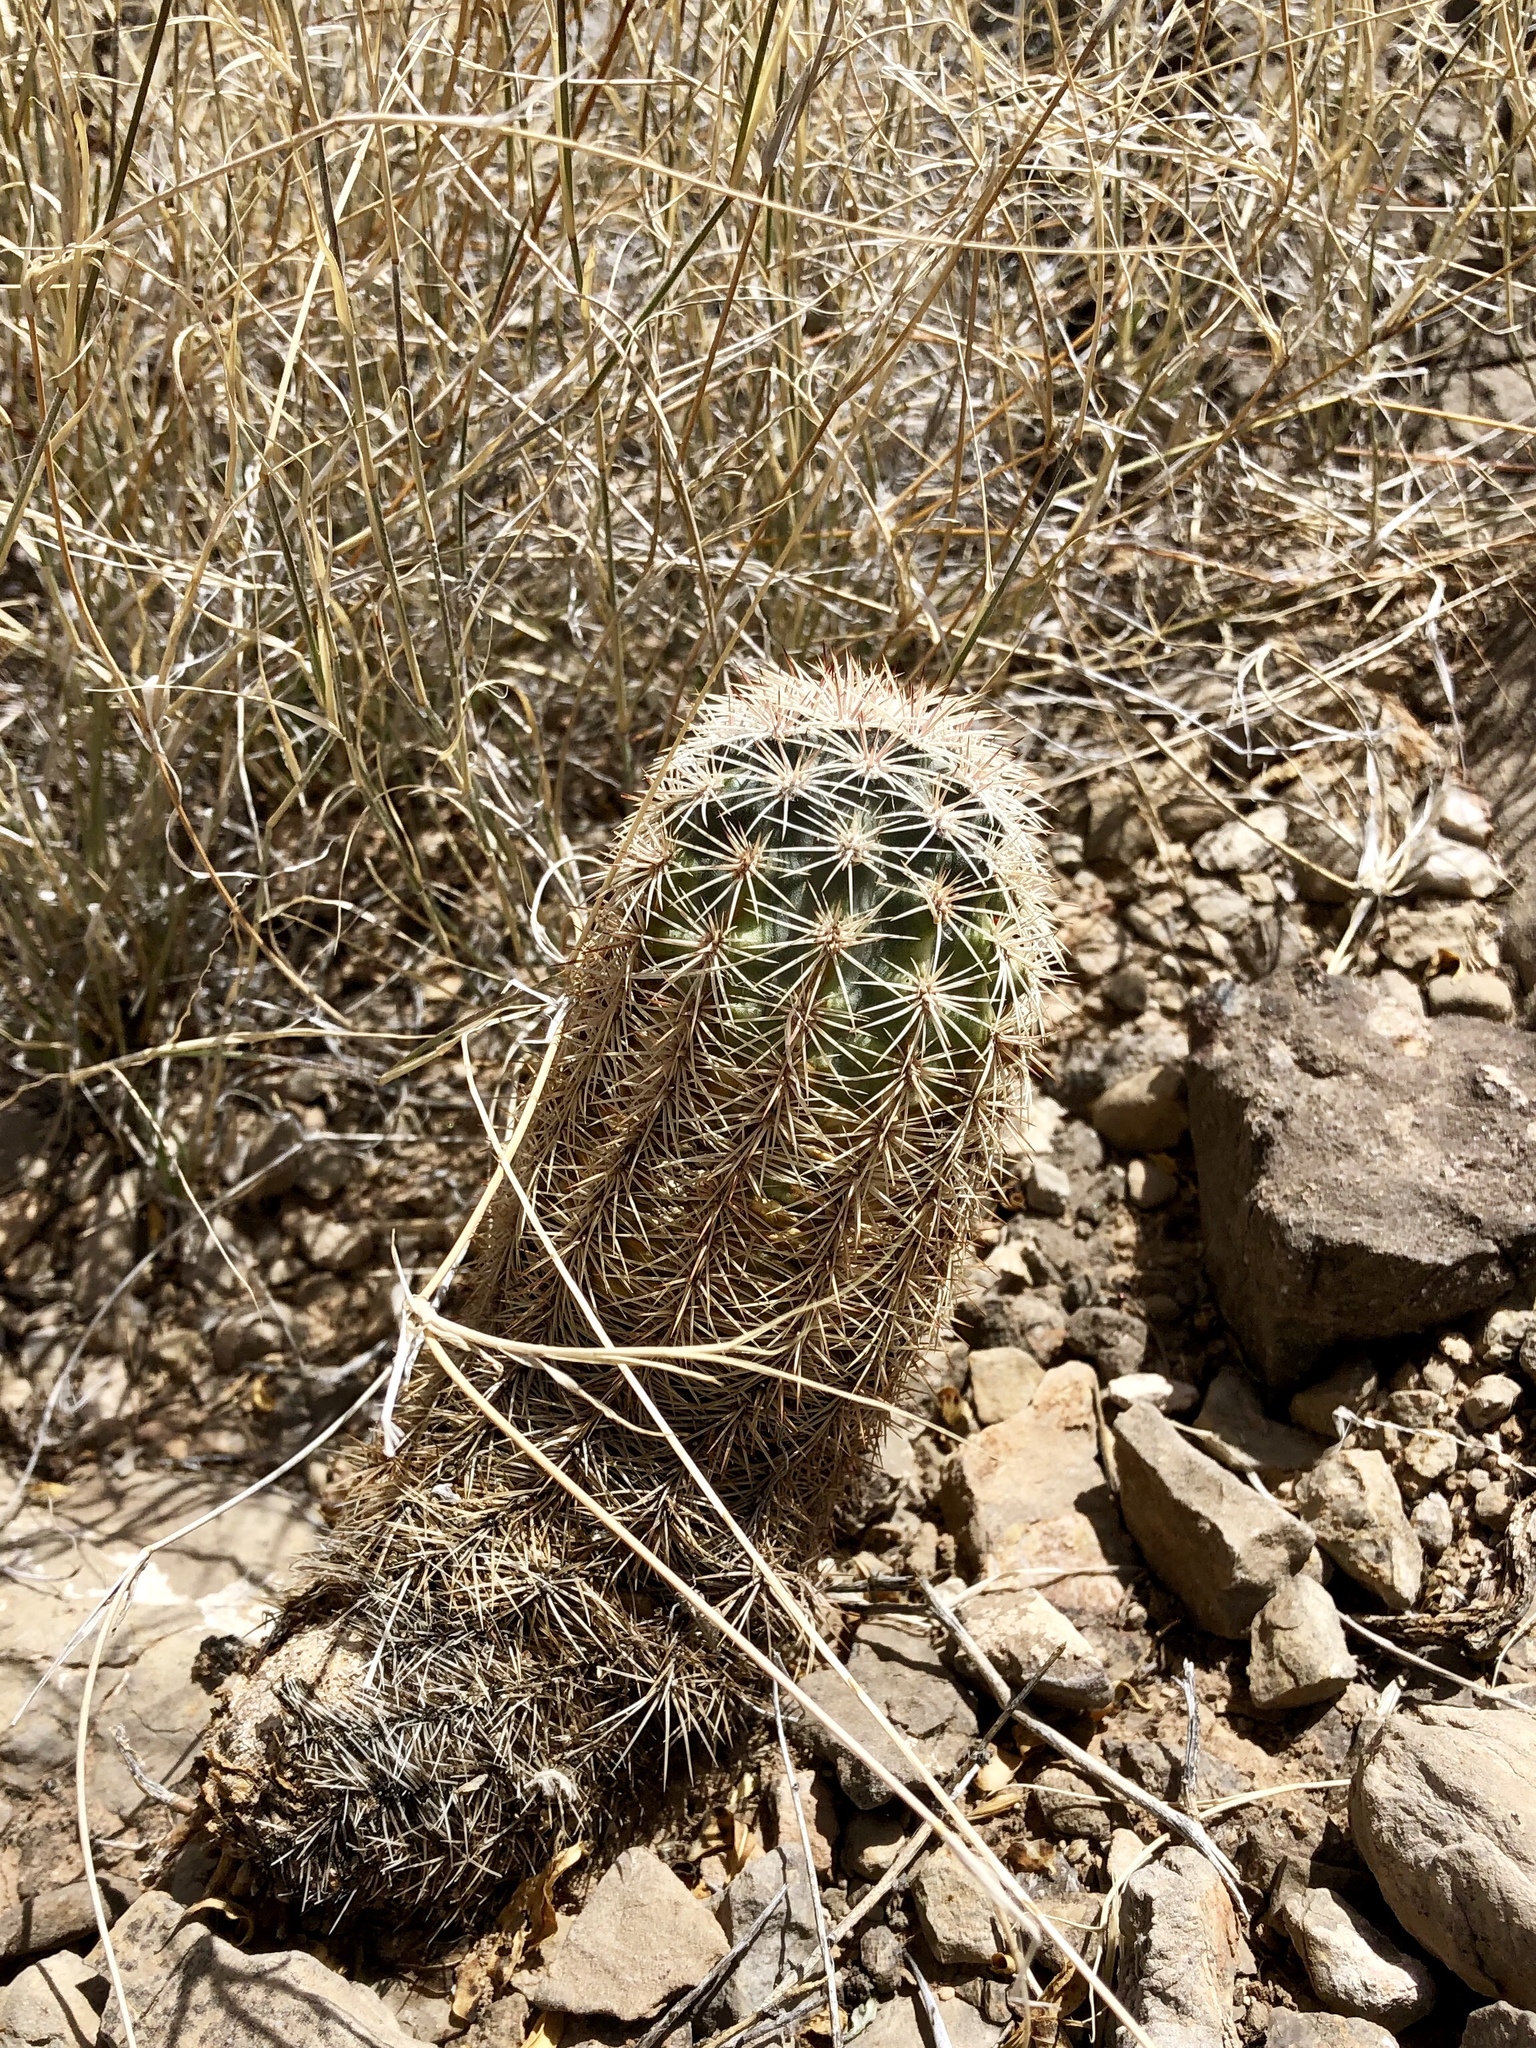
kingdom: Plantae
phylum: Tracheophyta
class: Magnoliopsida
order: Caryophyllales
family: Cactaceae
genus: Echinocereus
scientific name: Echinocereus dasyacanthus
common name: Spiny hedgehog cactus
